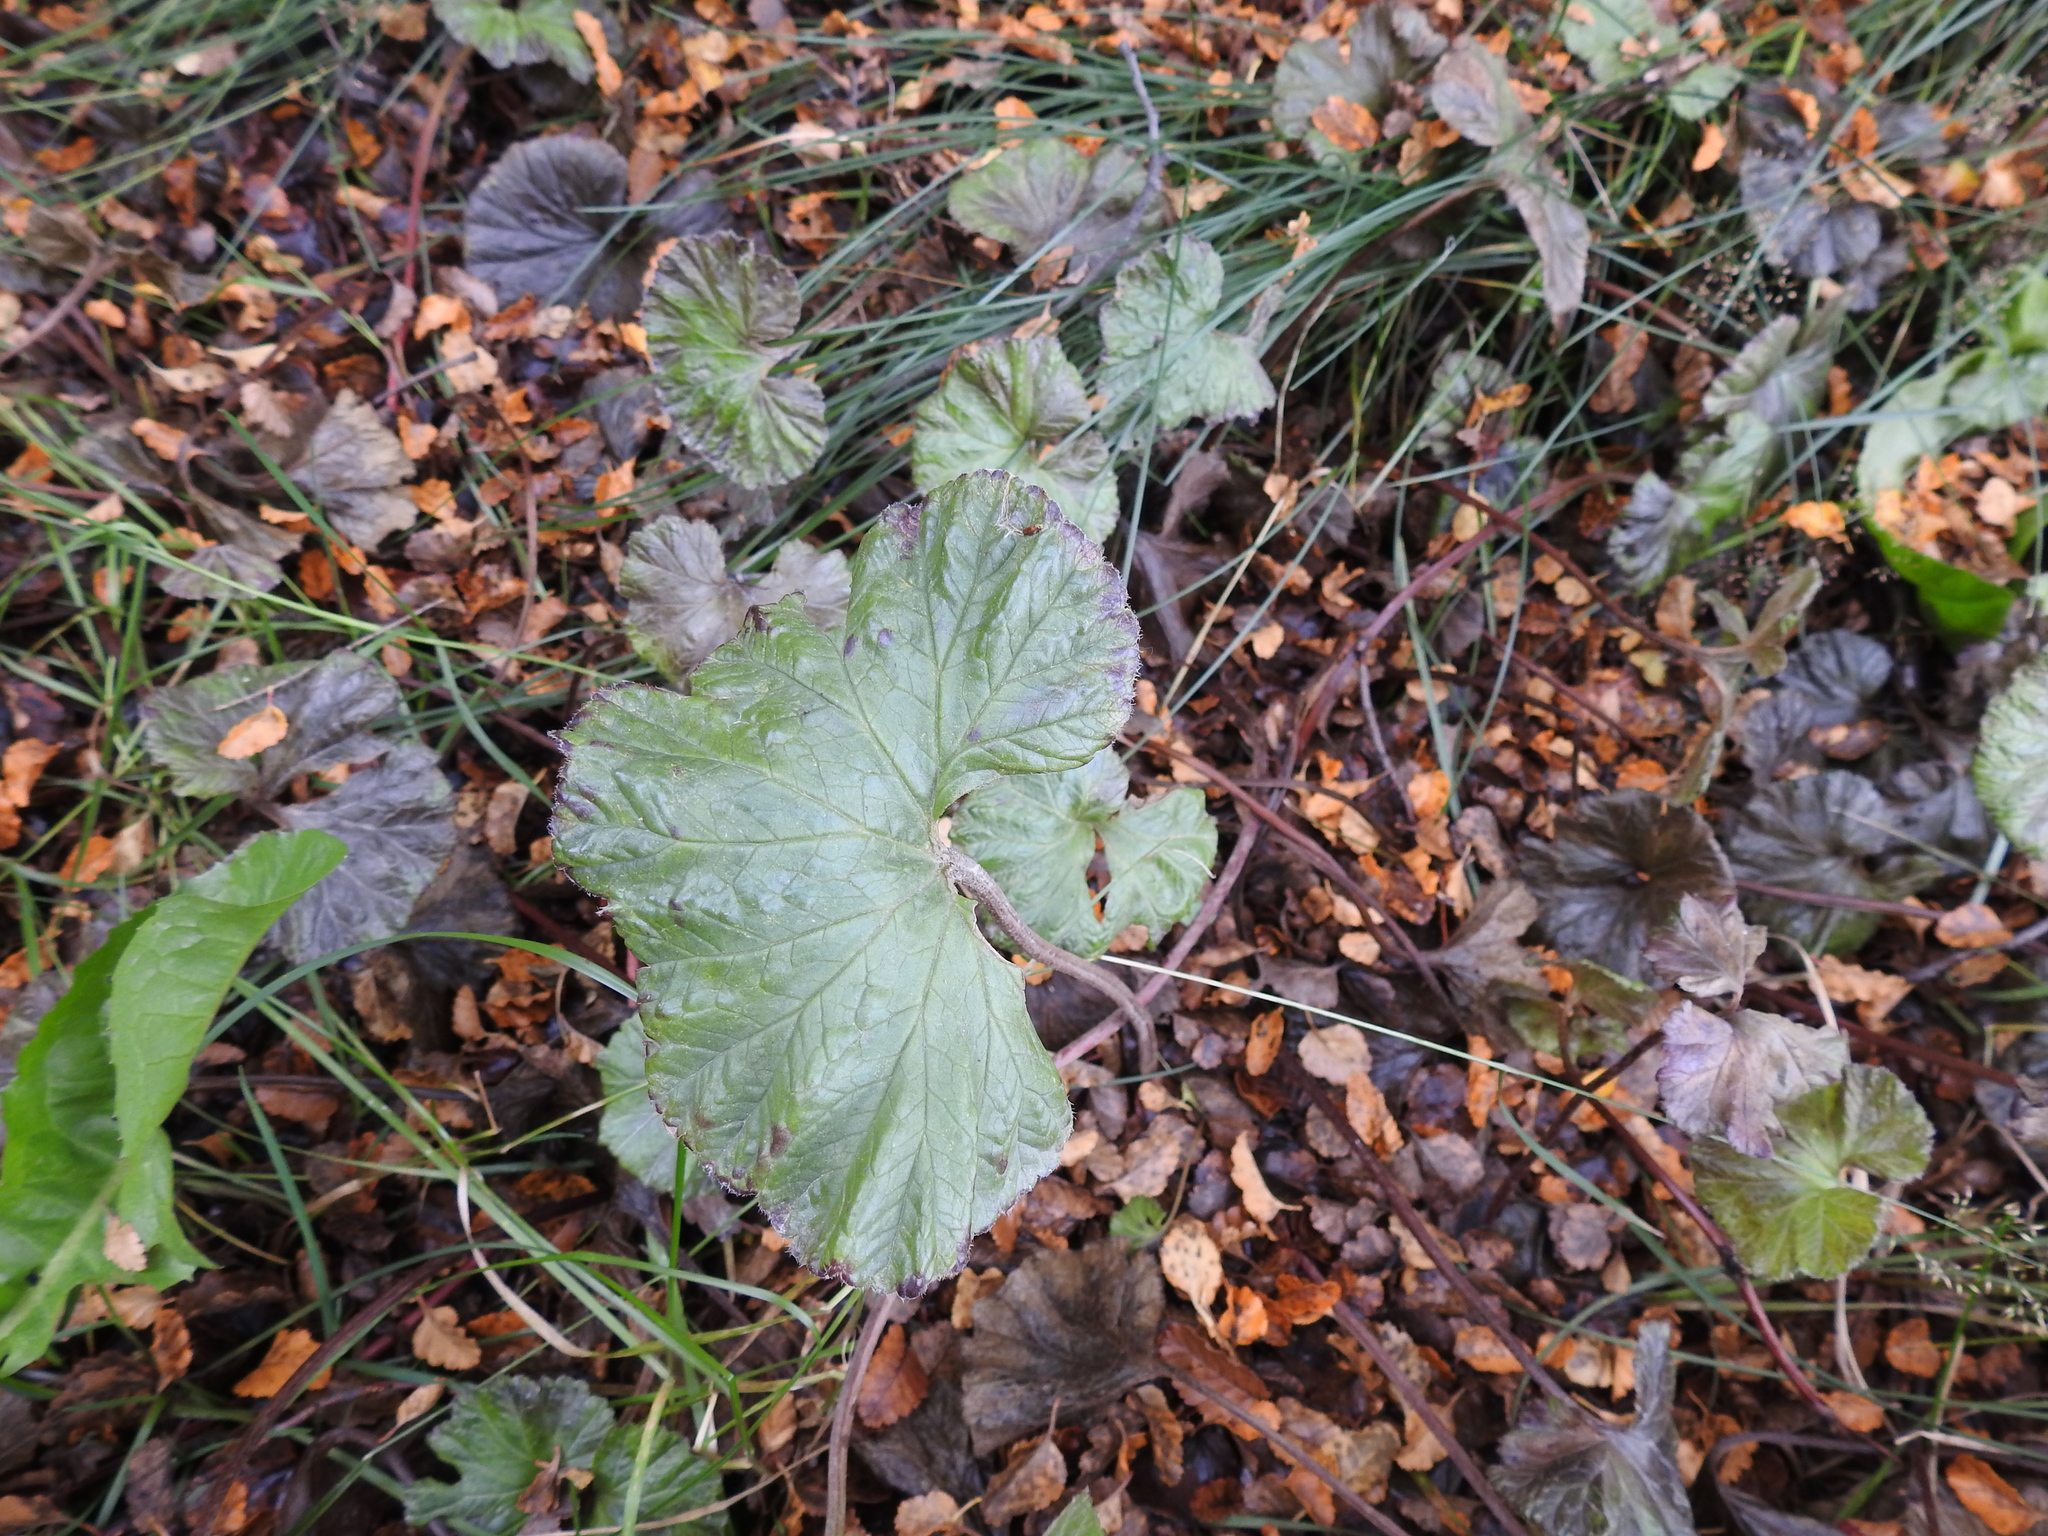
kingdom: Plantae
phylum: Tracheophyta
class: Magnoliopsida
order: Gunnerales
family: Gunneraceae
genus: Gunnera
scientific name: Gunnera magellanica
